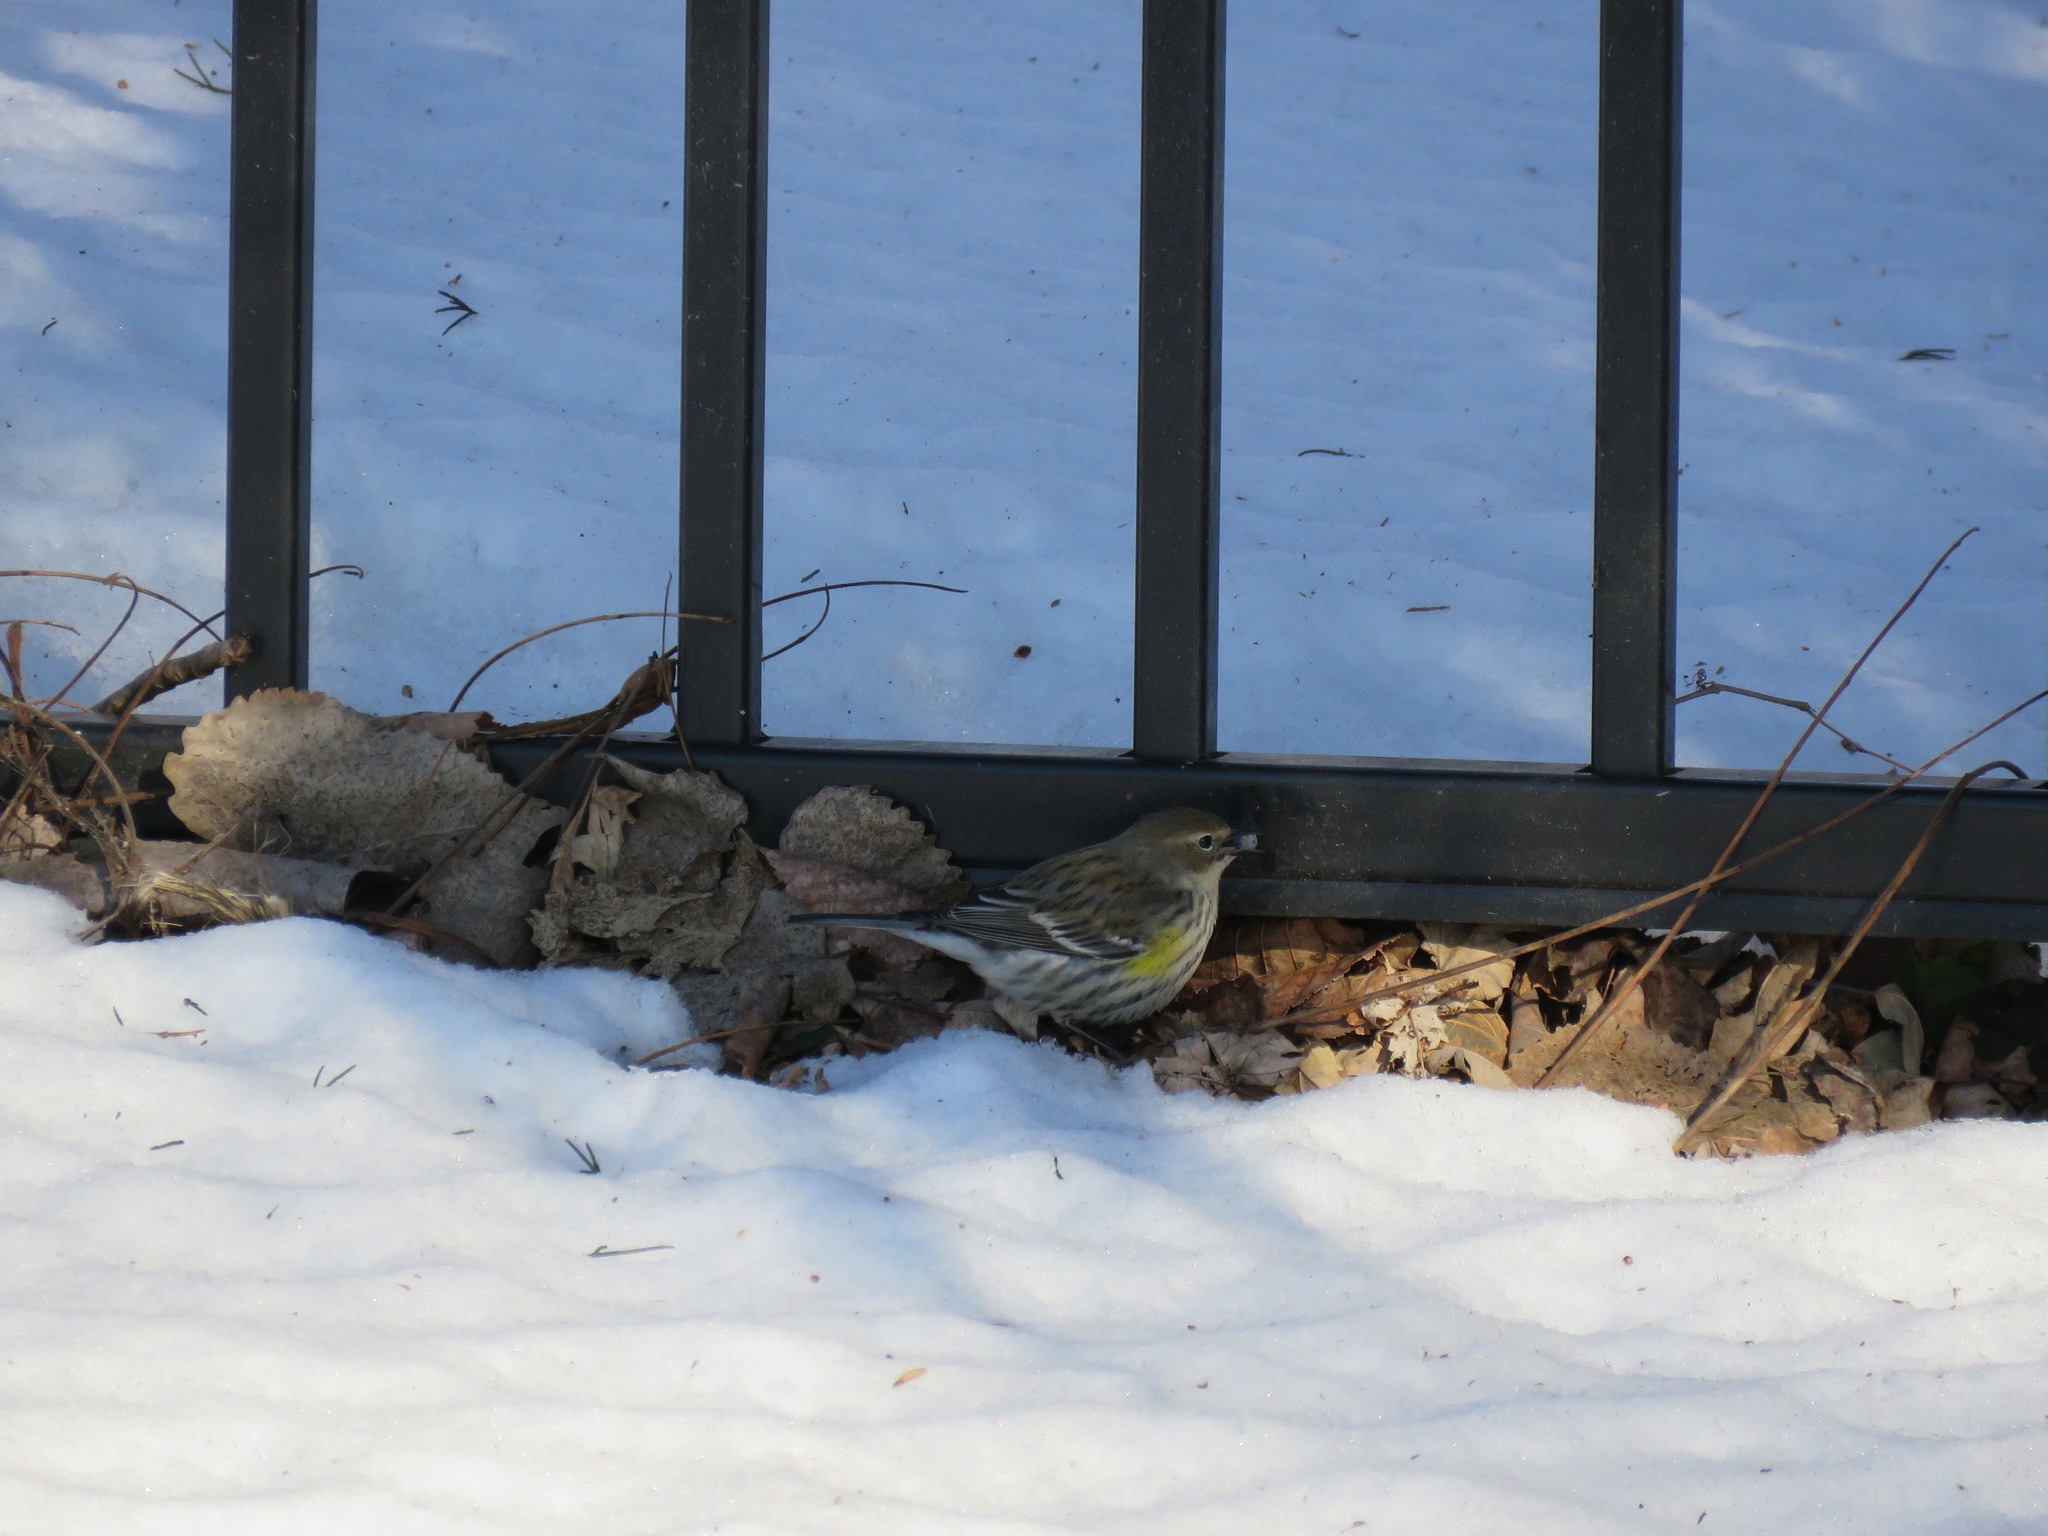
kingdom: Animalia
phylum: Chordata
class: Aves
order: Passeriformes
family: Parulidae
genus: Setophaga
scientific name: Setophaga coronata
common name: Myrtle warbler
